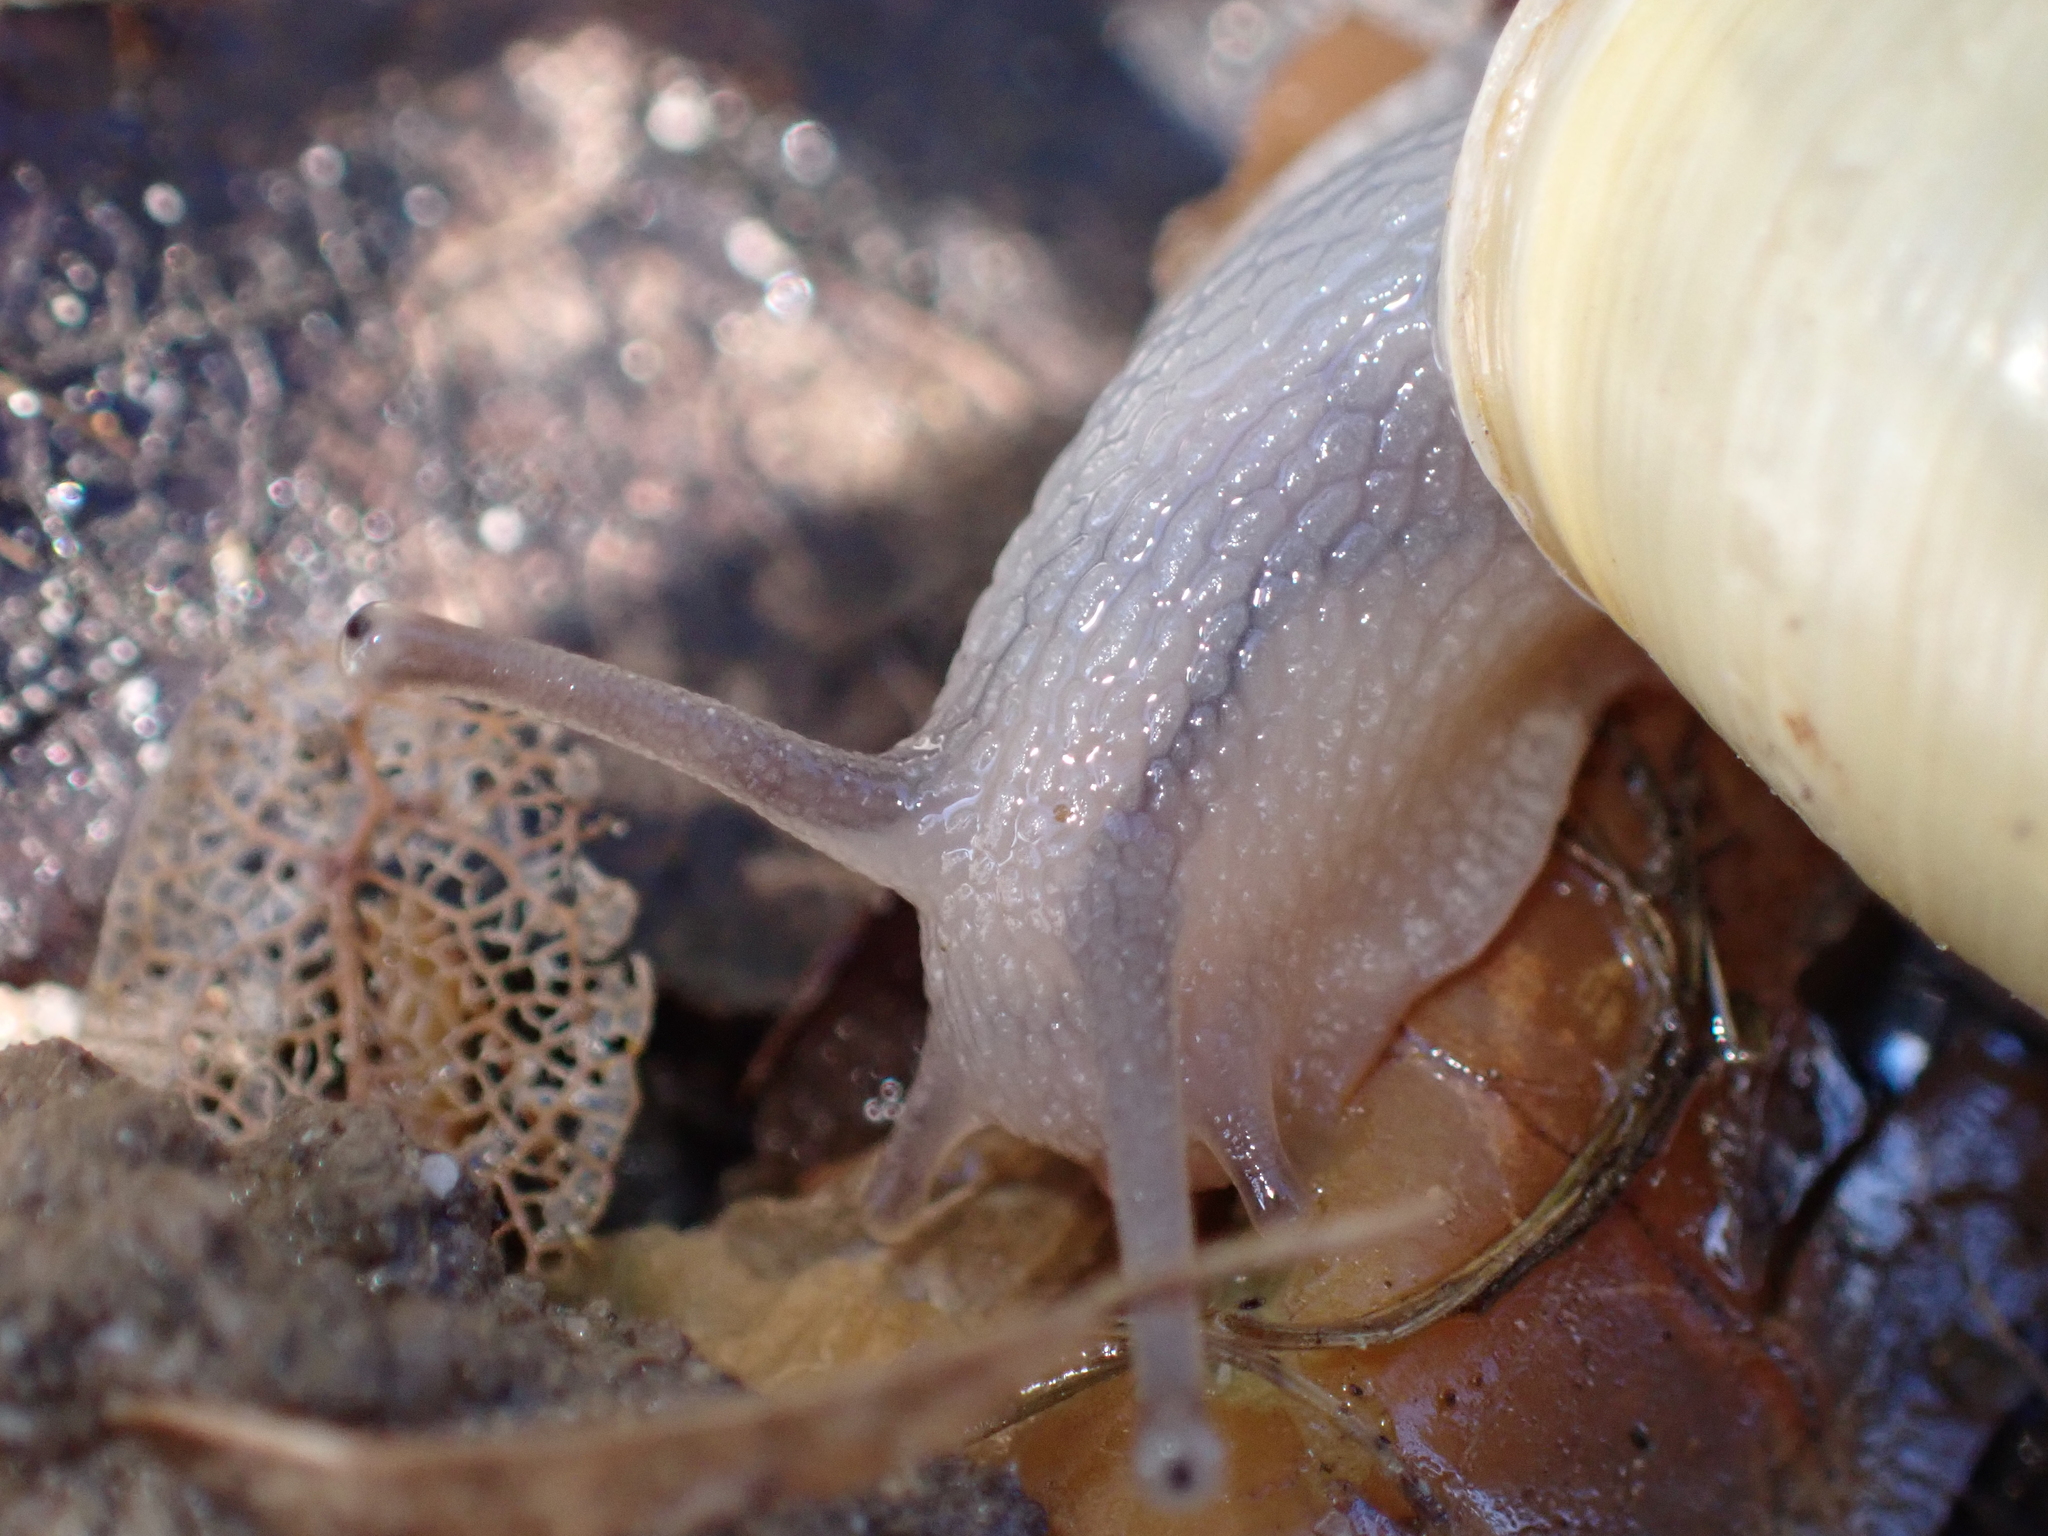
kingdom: Animalia
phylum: Mollusca
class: Gastropoda
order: Stylommatophora
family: Helicidae
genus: Cepaea
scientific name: Cepaea hortensis
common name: White-lip gardensnail
